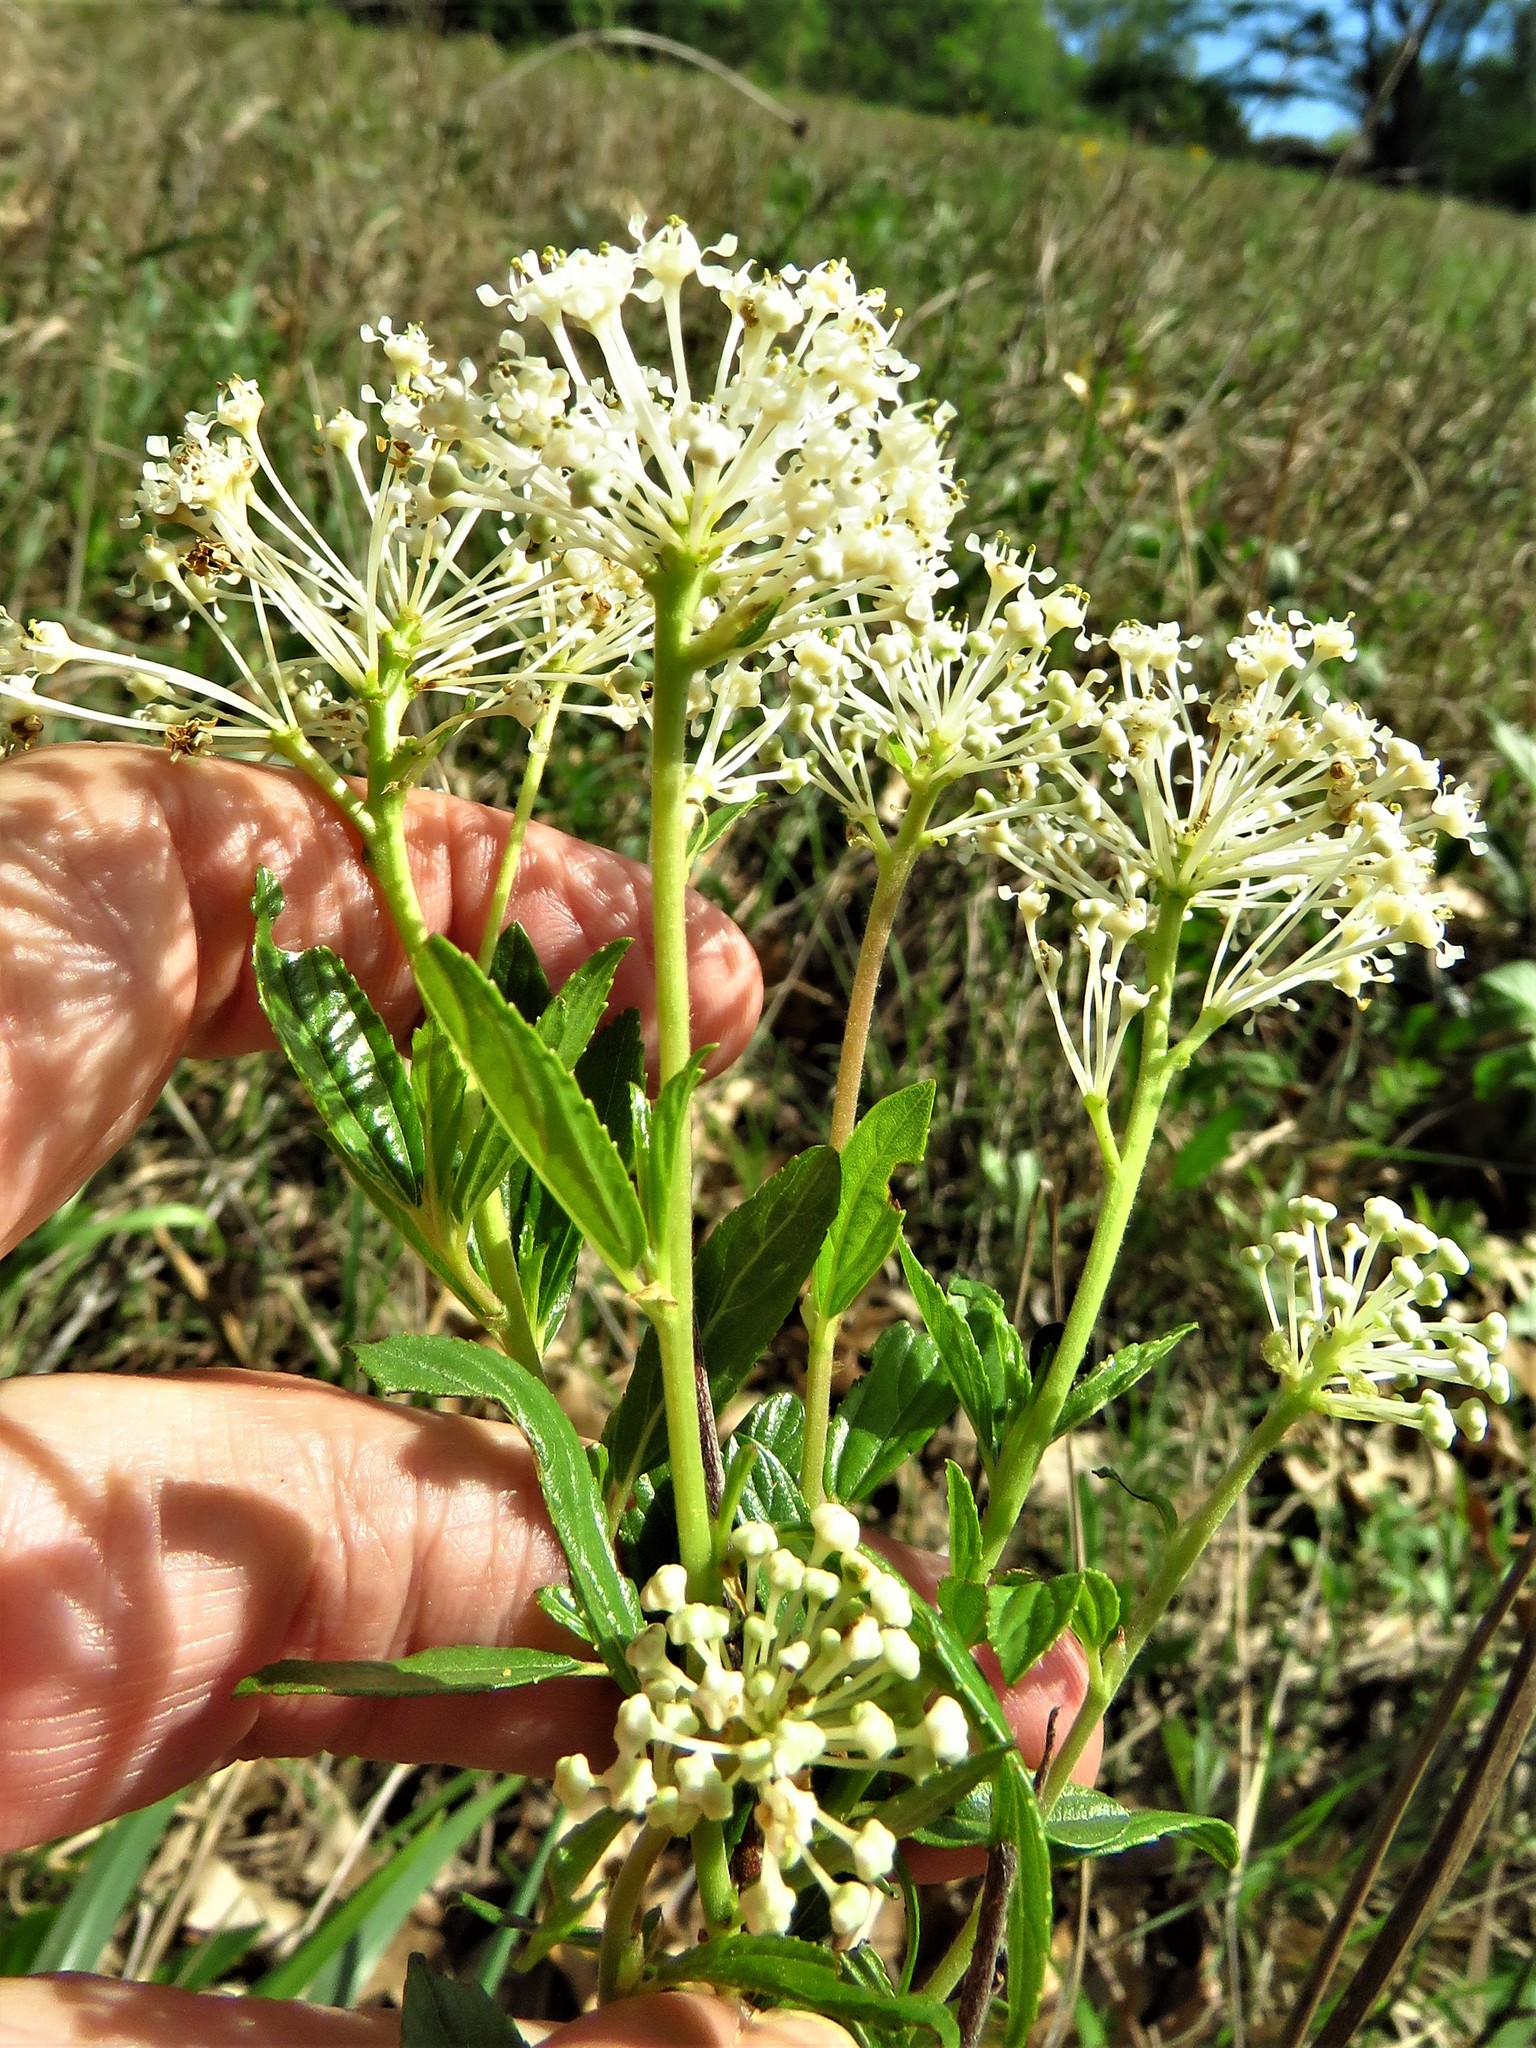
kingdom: Plantae
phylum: Tracheophyta
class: Magnoliopsida
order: Rosales
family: Rhamnaceae
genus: Ceanothus
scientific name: Ceanothus herbaceus
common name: Inland ceanothus
